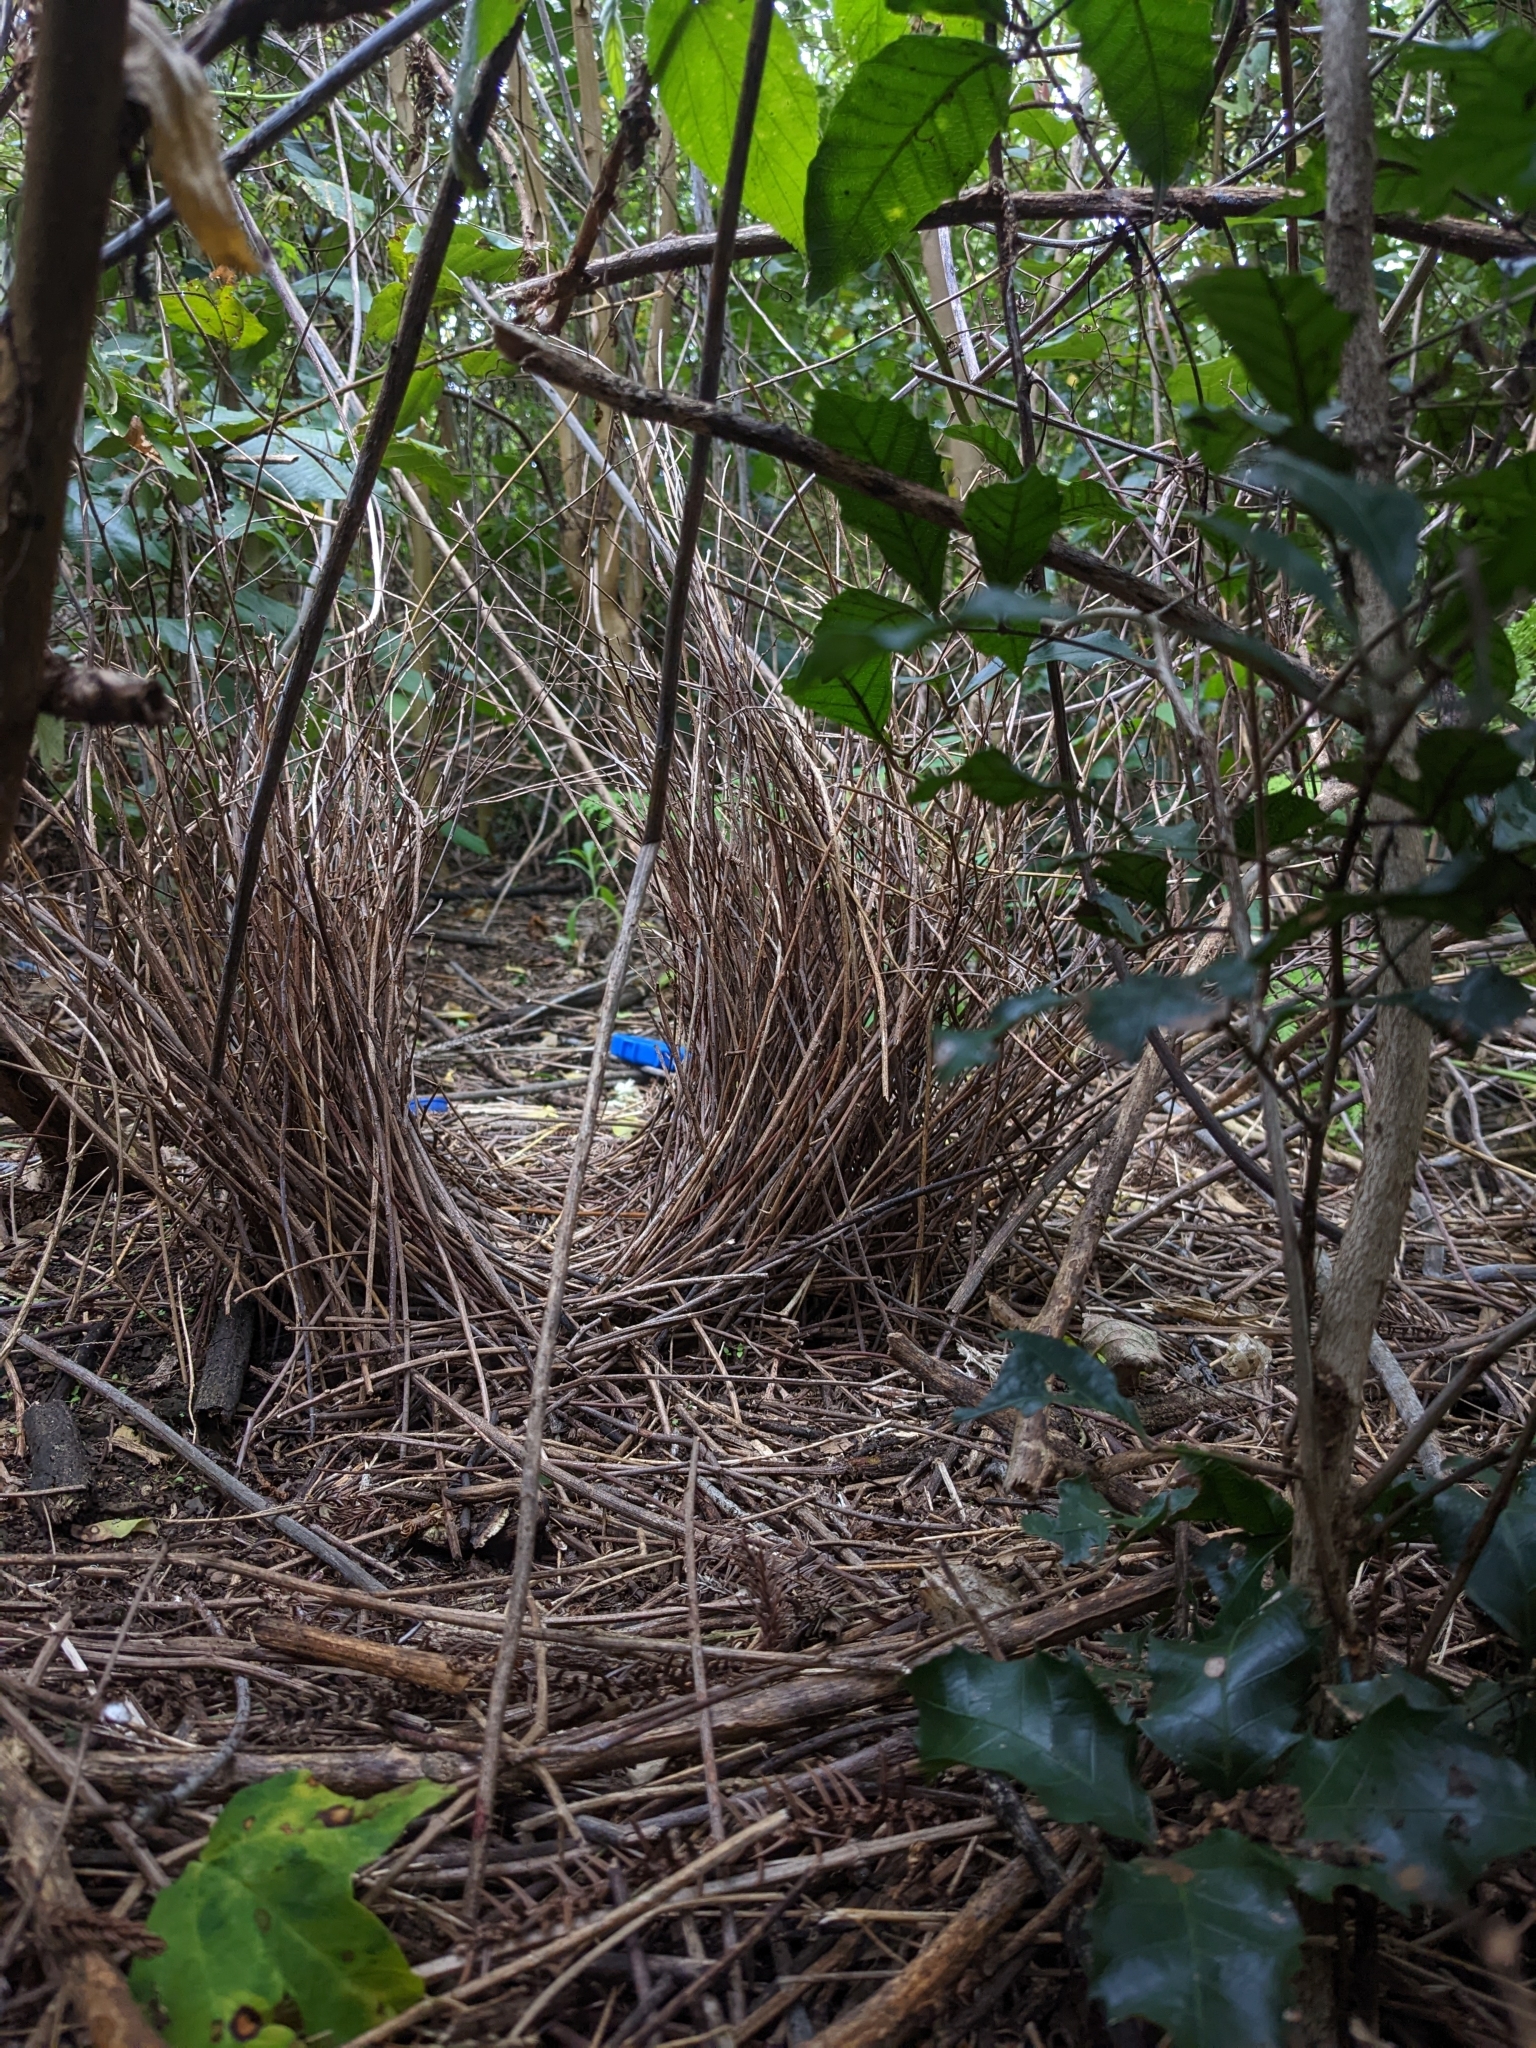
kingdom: Animalia
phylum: Chordata
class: Aves
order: Passeriformes
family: Ptilonorhynchidae
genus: Ptilonorhynchus
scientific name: Ptilonorhynchus violaceus
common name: Satin bowerbird
